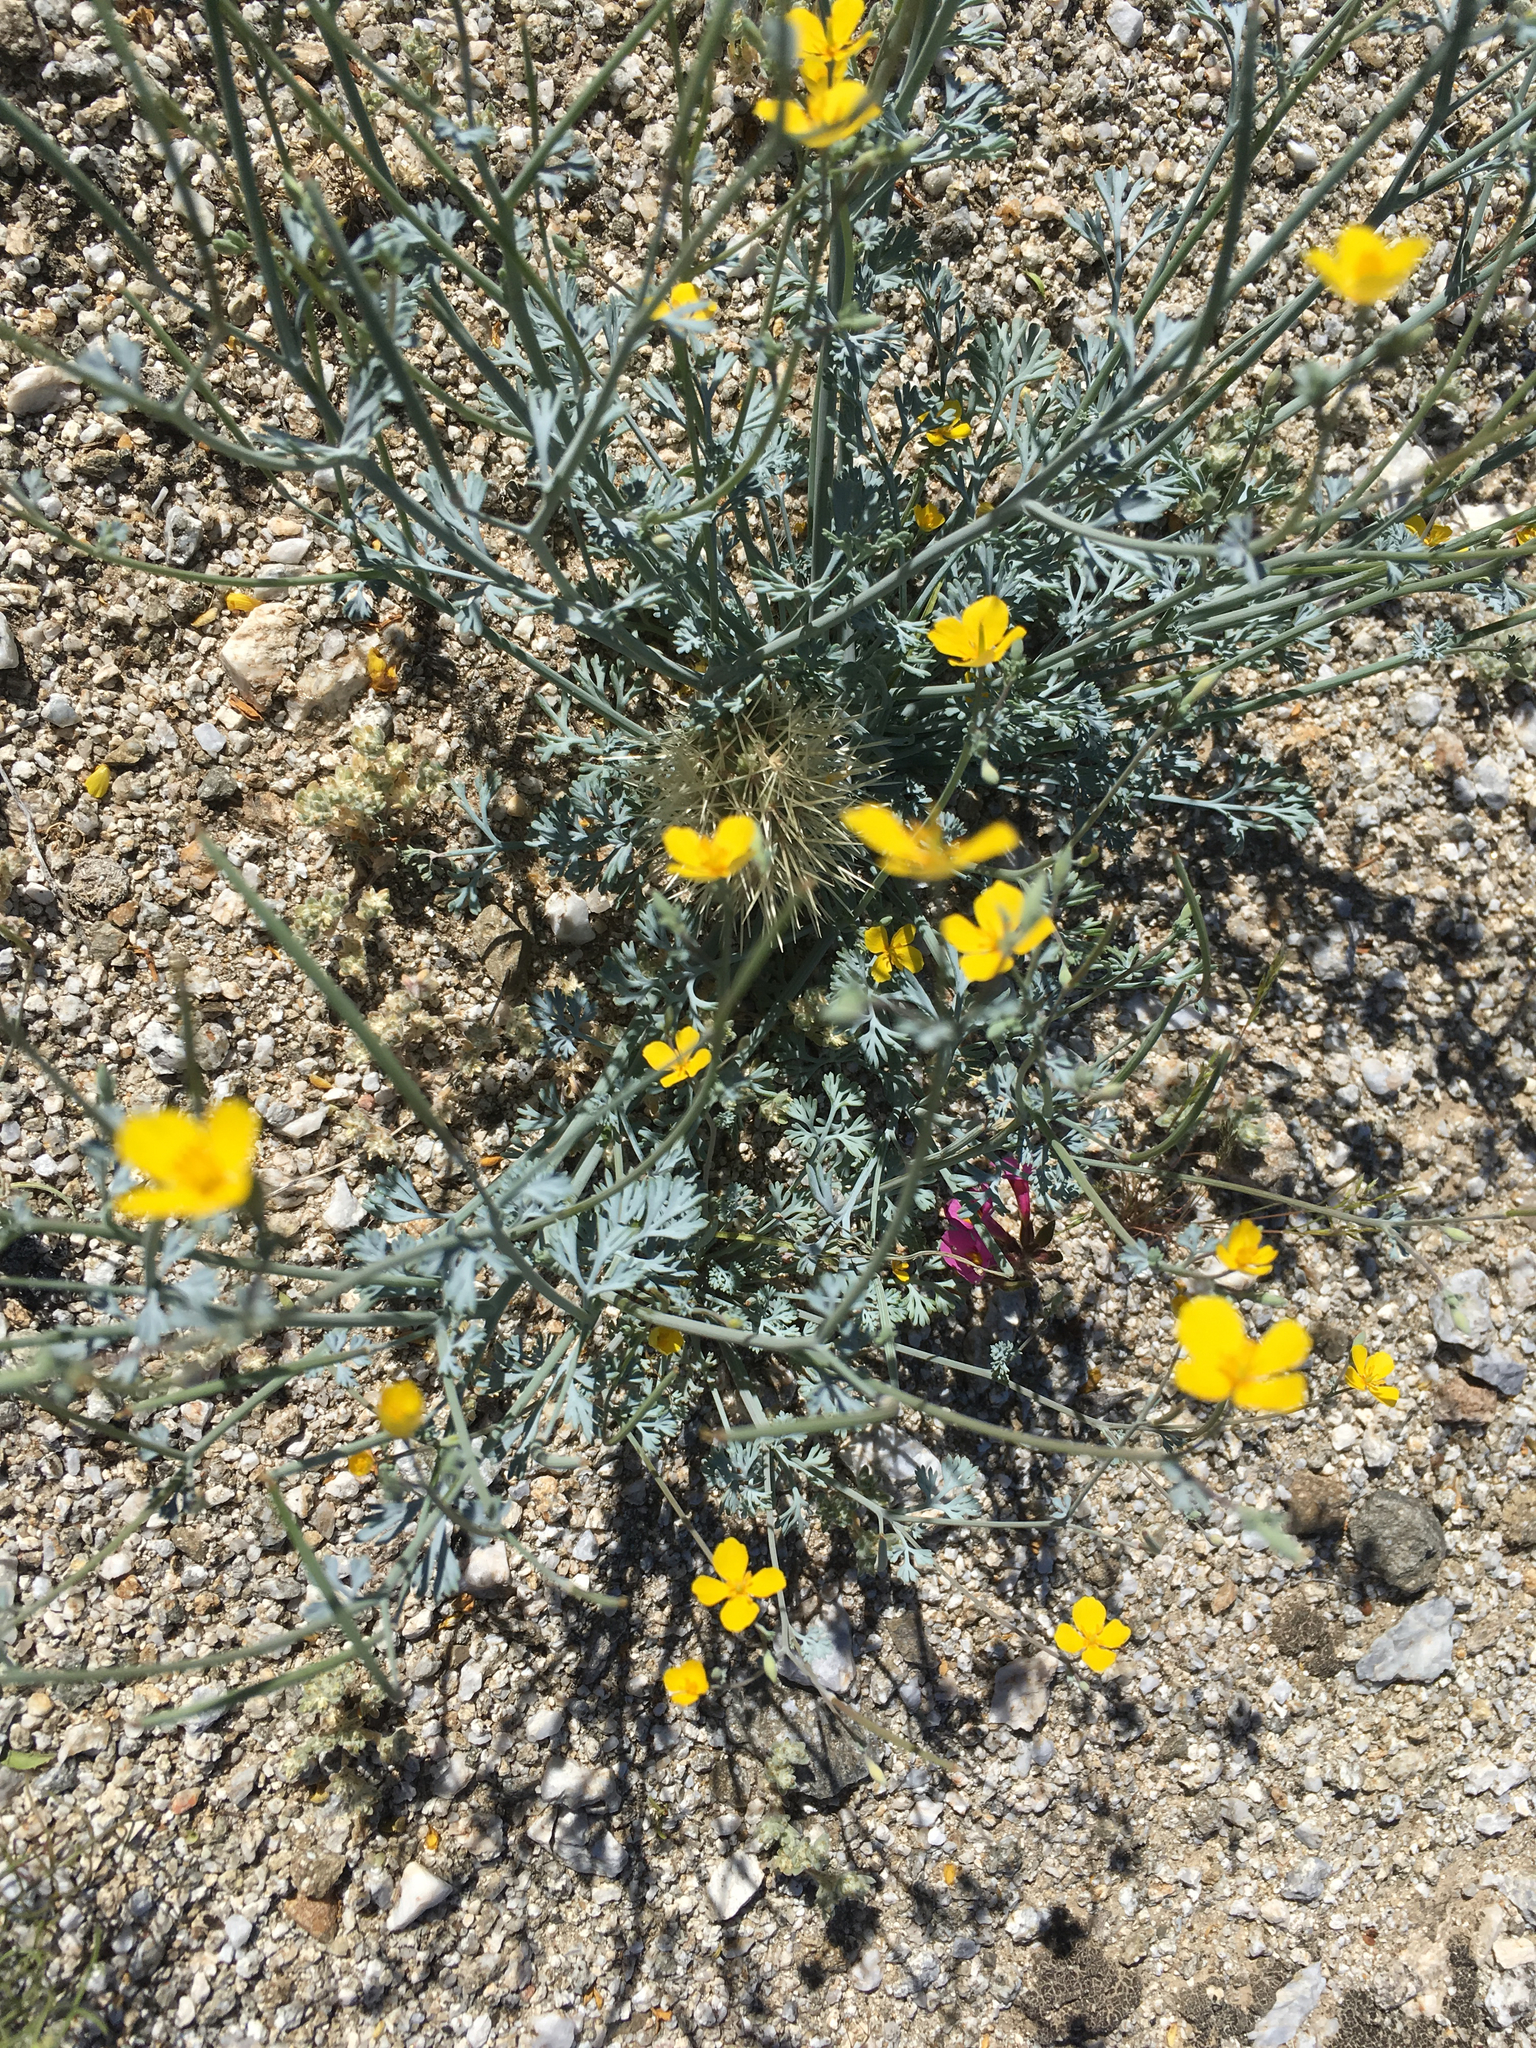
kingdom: Plantae
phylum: Tracheophyta
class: Magnoliopsida
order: Ranunculales
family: Papaveraceae
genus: Eschscholzia
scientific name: Eschscholzia minutiflora
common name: Small-flower california-poppy
